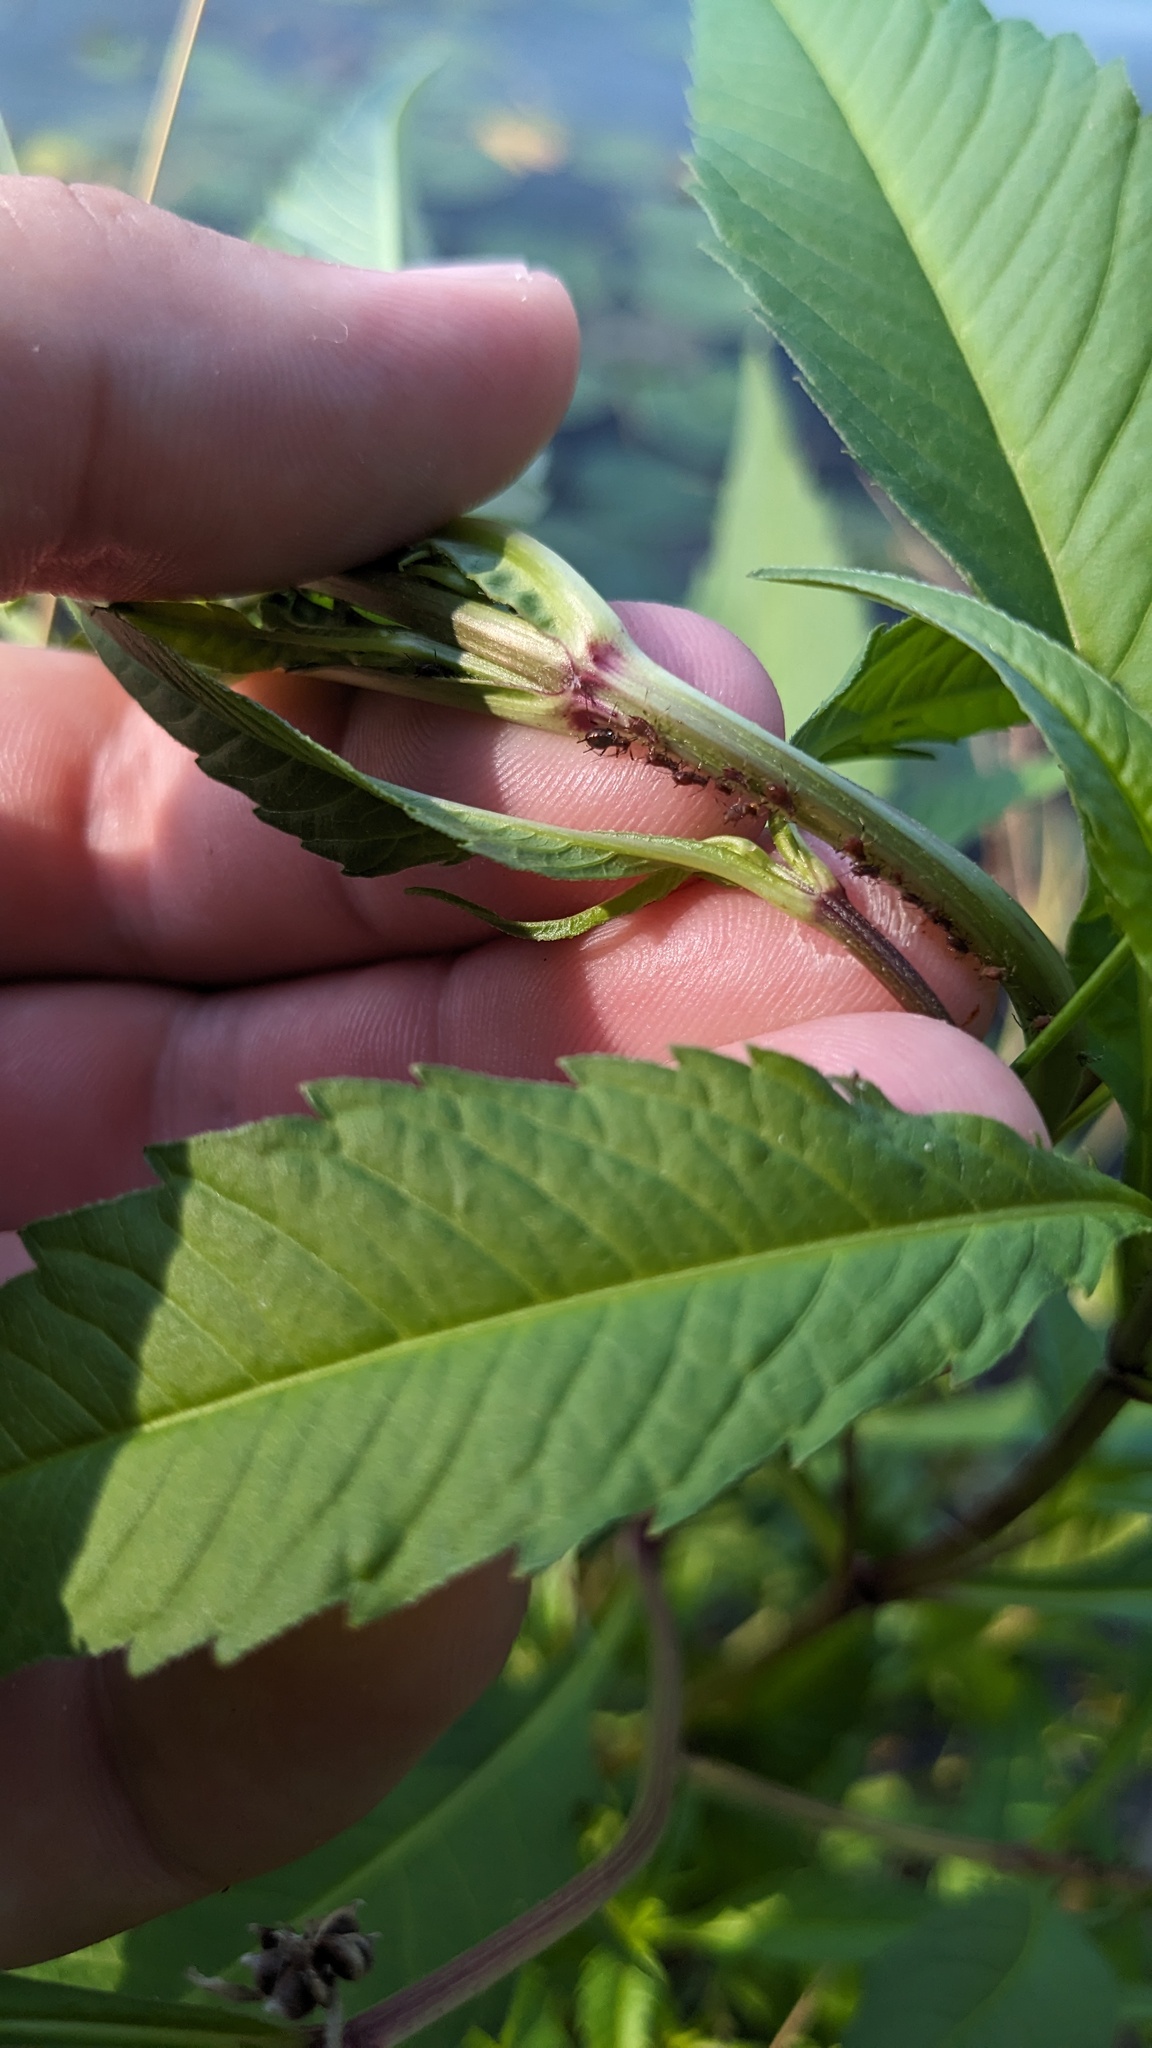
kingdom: Plantae
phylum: Tracheophyta
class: Magnoliopsida
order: Asterales
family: Asteraceae
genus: Bidens
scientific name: Bidens connata
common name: London bur-marigold
